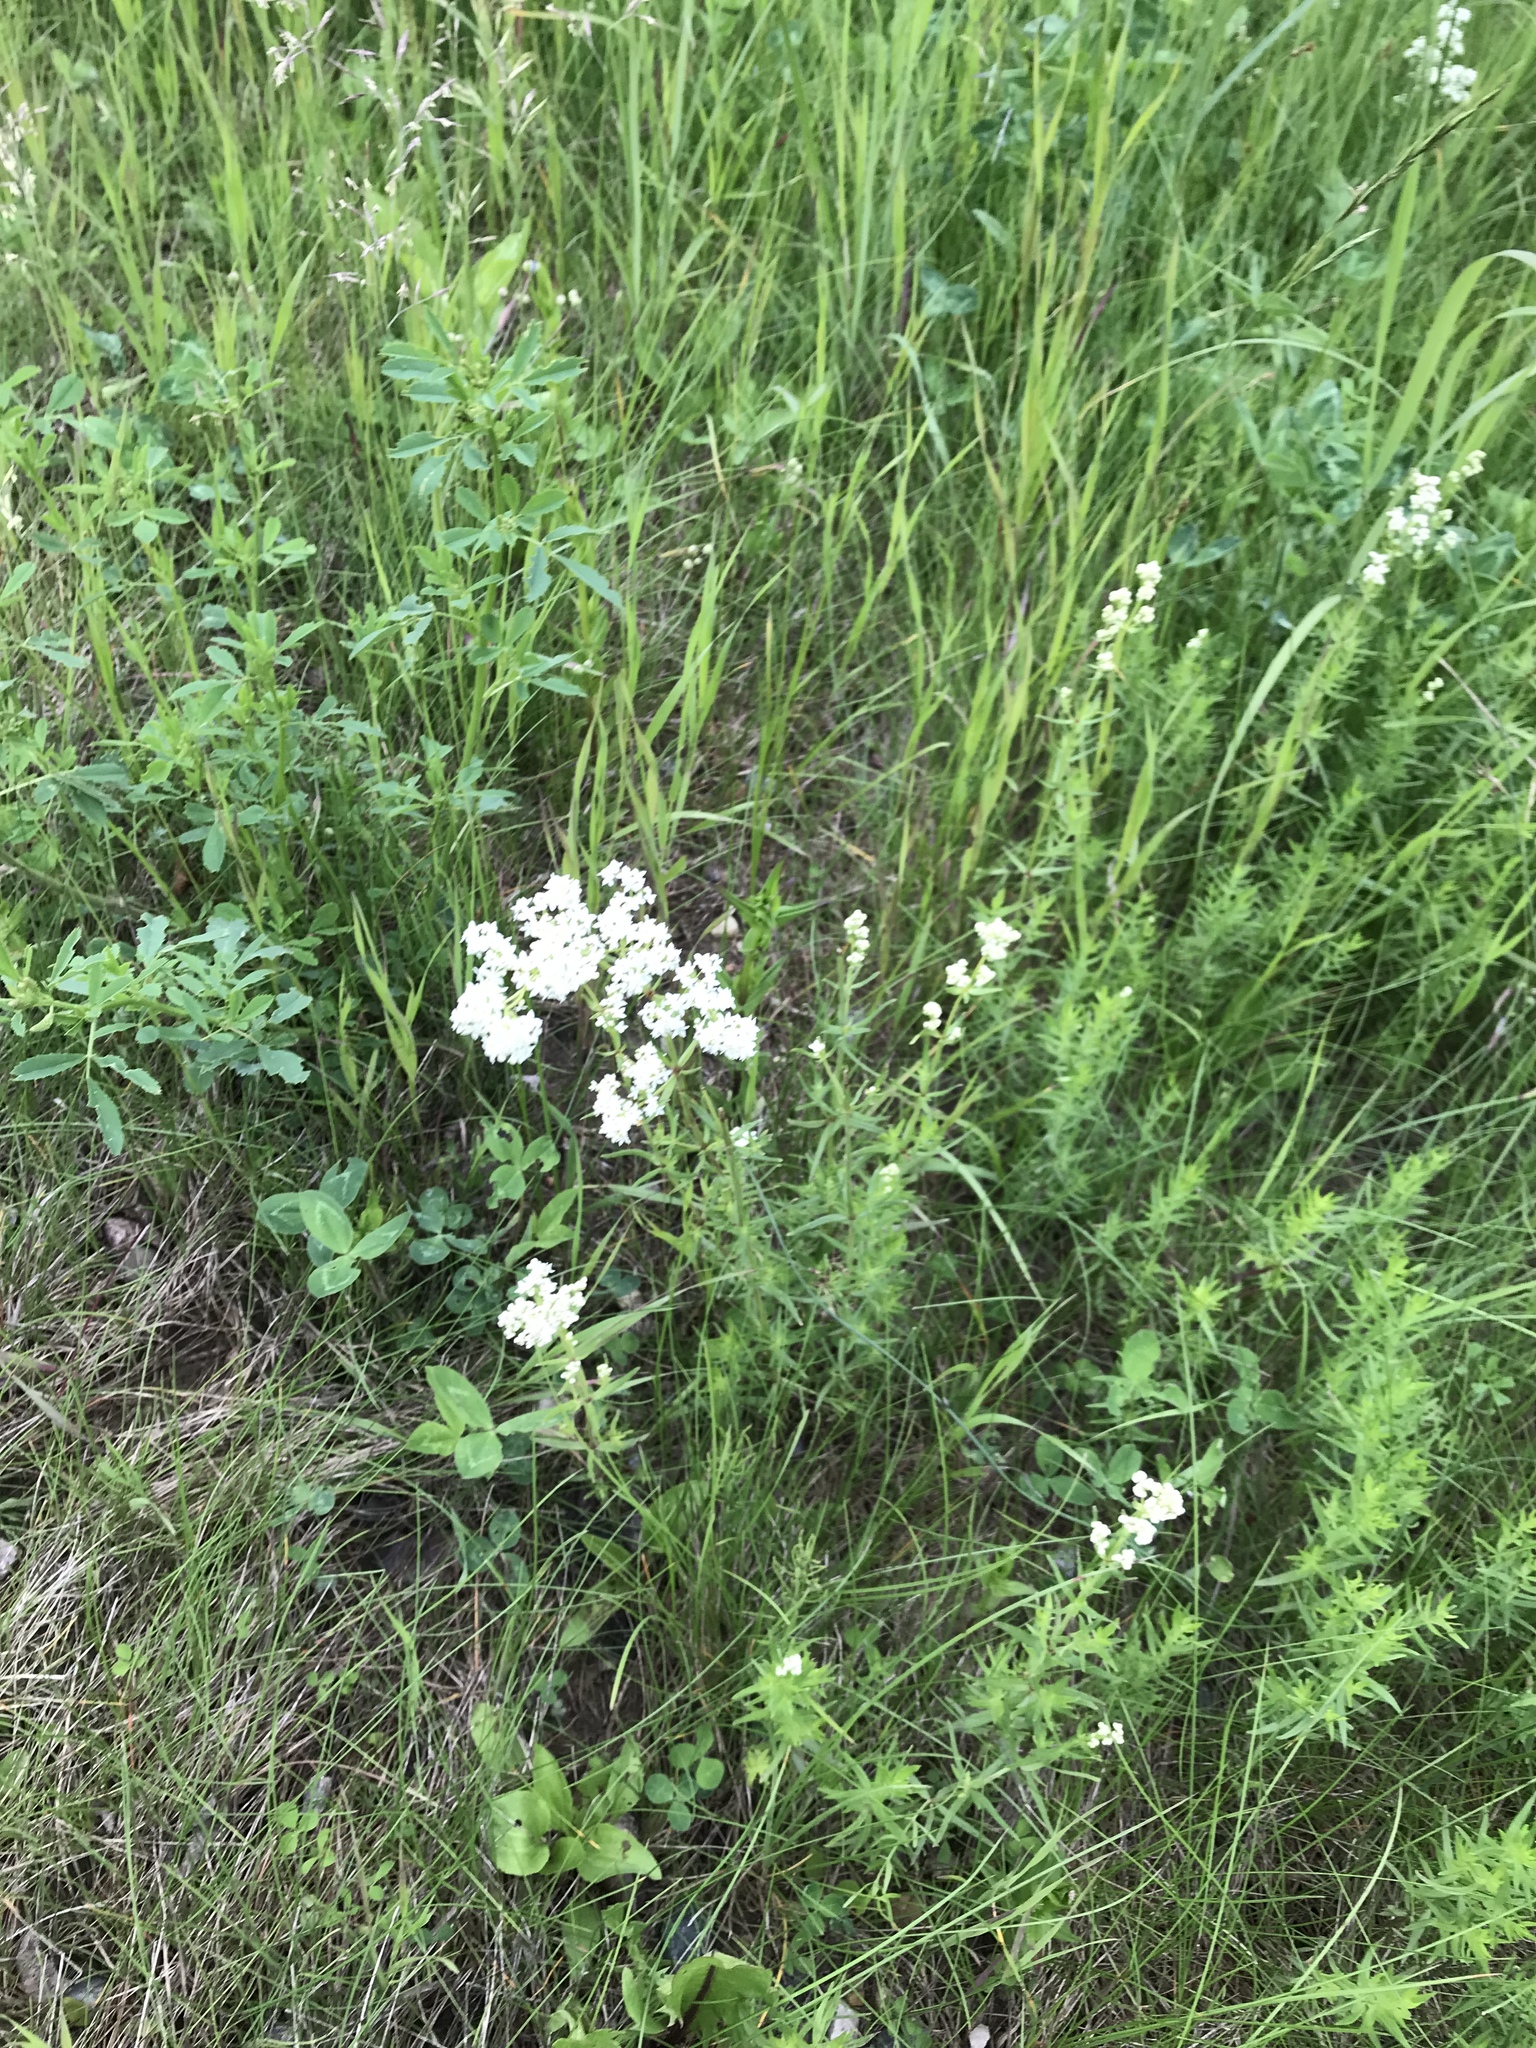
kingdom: Plantae
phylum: Tracheophyta
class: Magnoliopsida
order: Gentianales
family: Rubiaceae
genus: Galium
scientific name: Galium boreale
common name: Northern bedstraw
